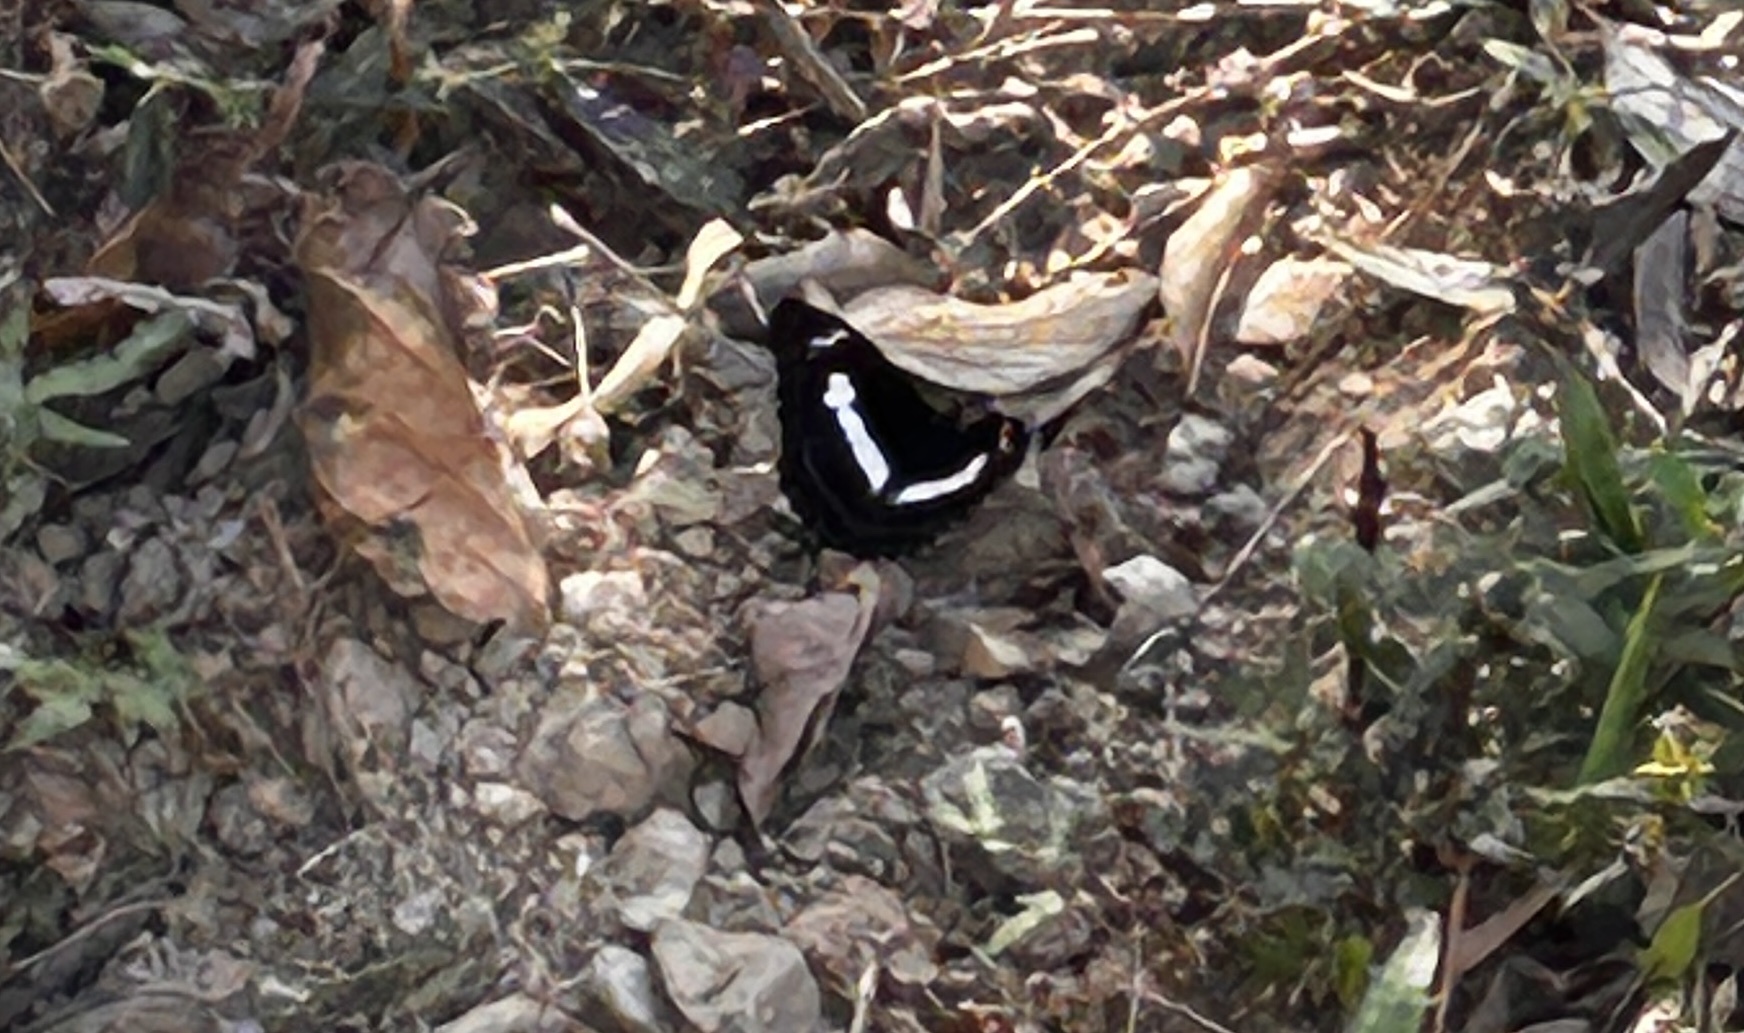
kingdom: Animalia
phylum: Arthropoda
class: Insecta
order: Lepidoptera
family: Nymphalidae
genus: Parathyma
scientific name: Parathyma selenophora
